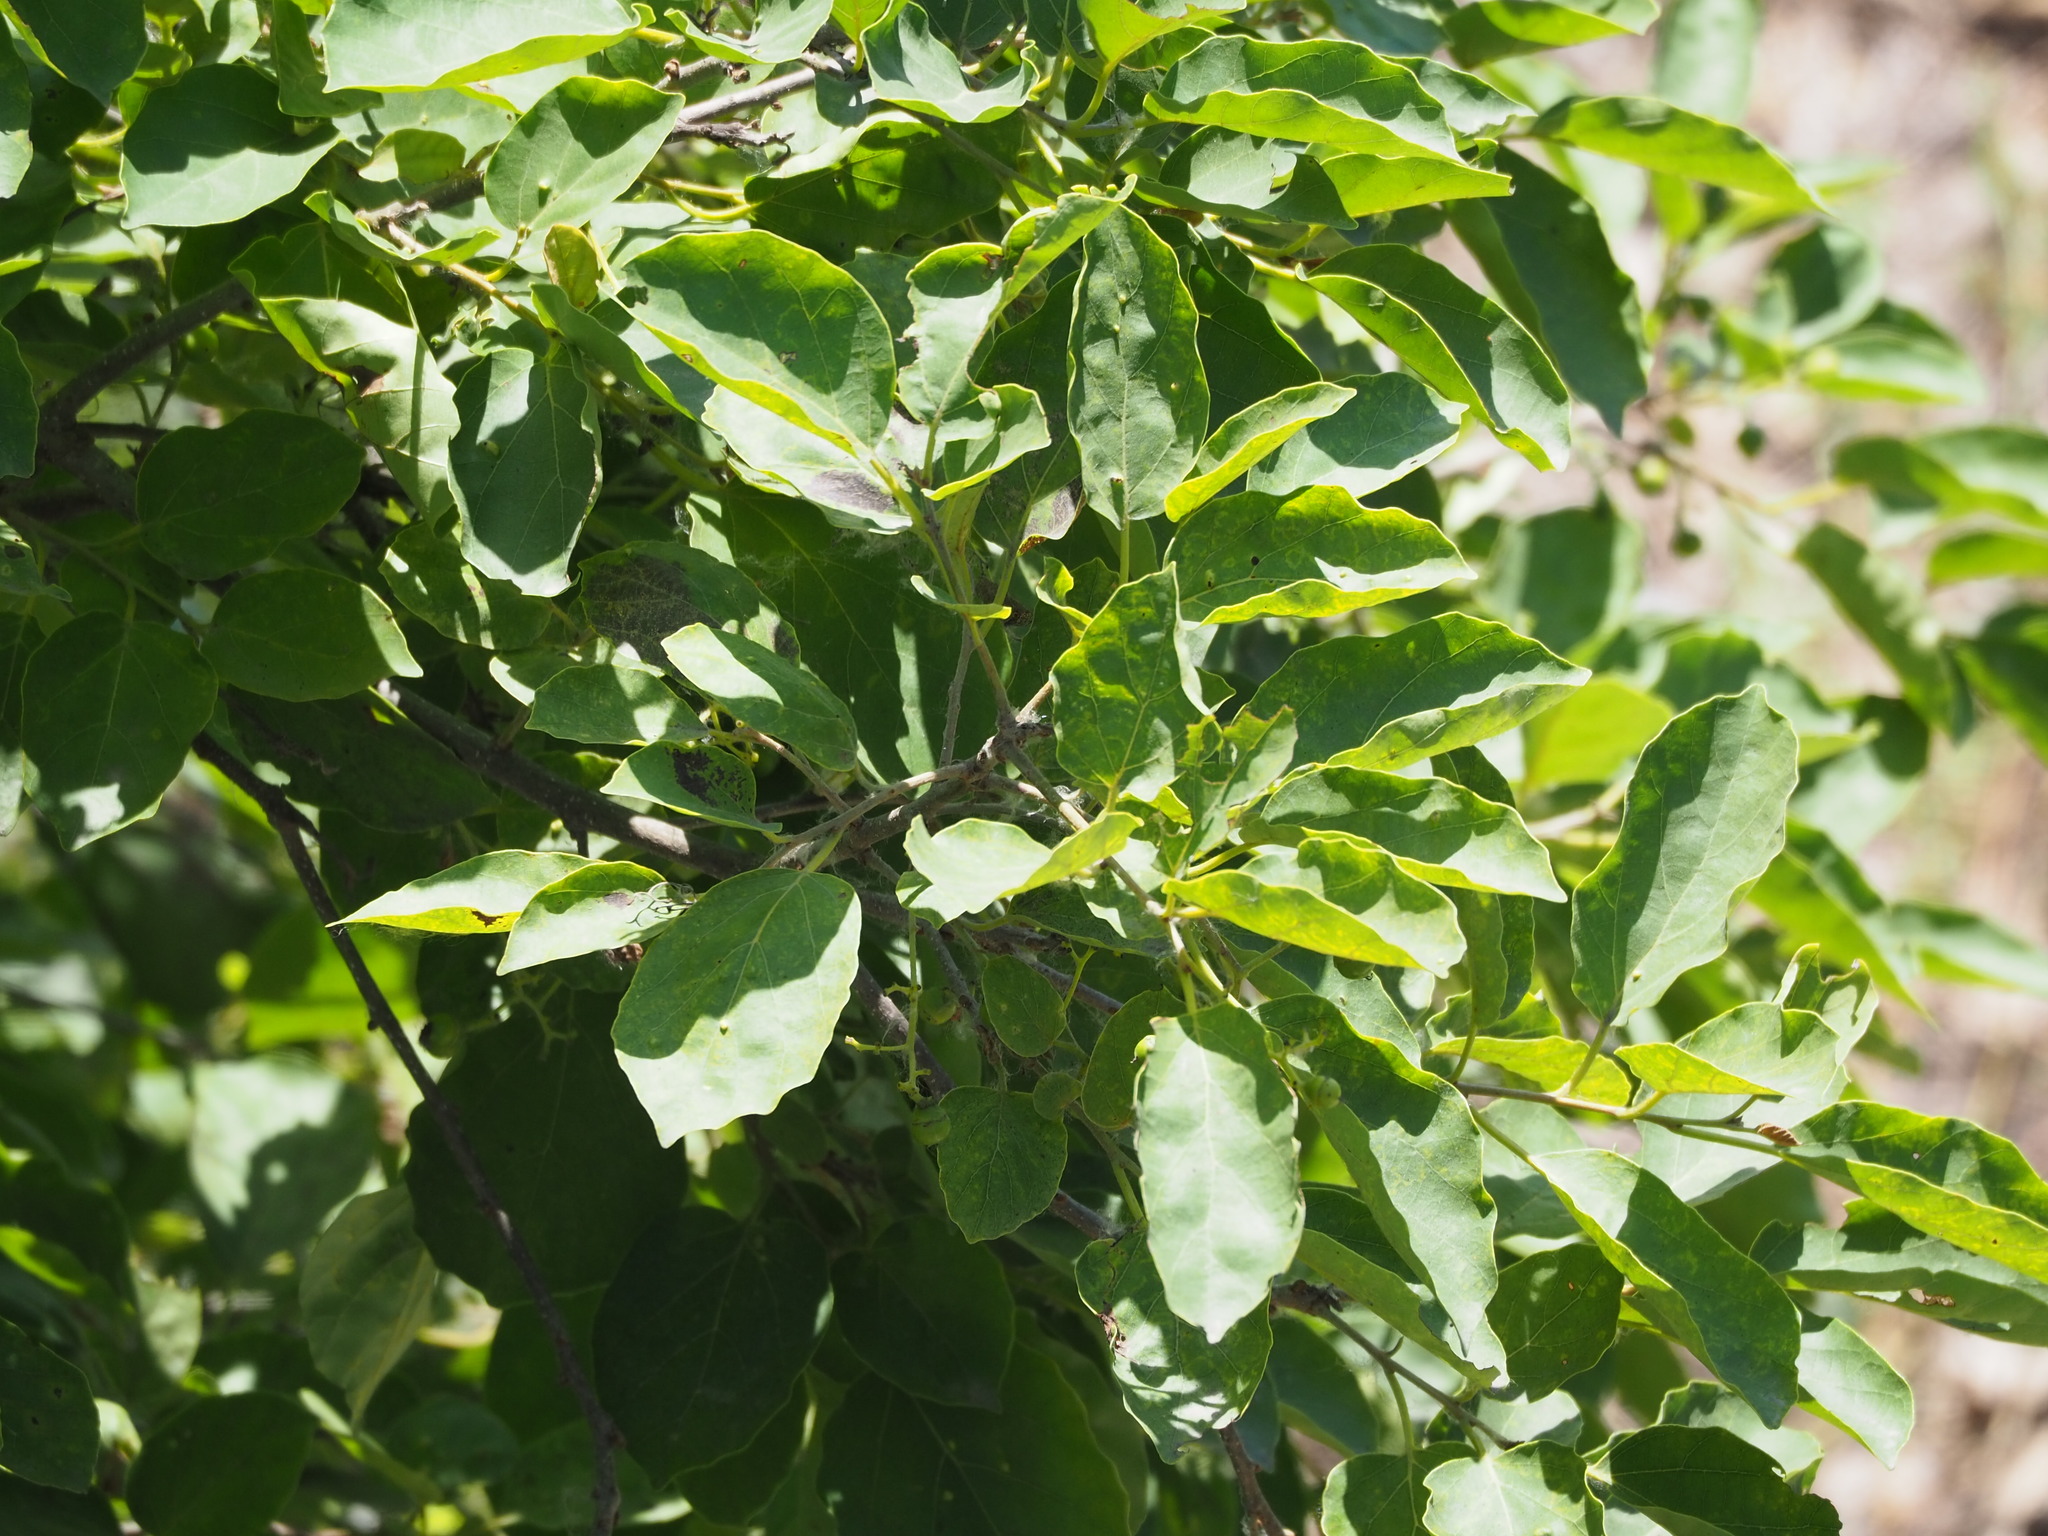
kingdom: Plantae
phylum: Tracheophyta
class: Magnoliopsida
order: Boraginales
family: Cordiaceae
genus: Cordia
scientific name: Cordia dichotoma
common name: Fragrant manjack
